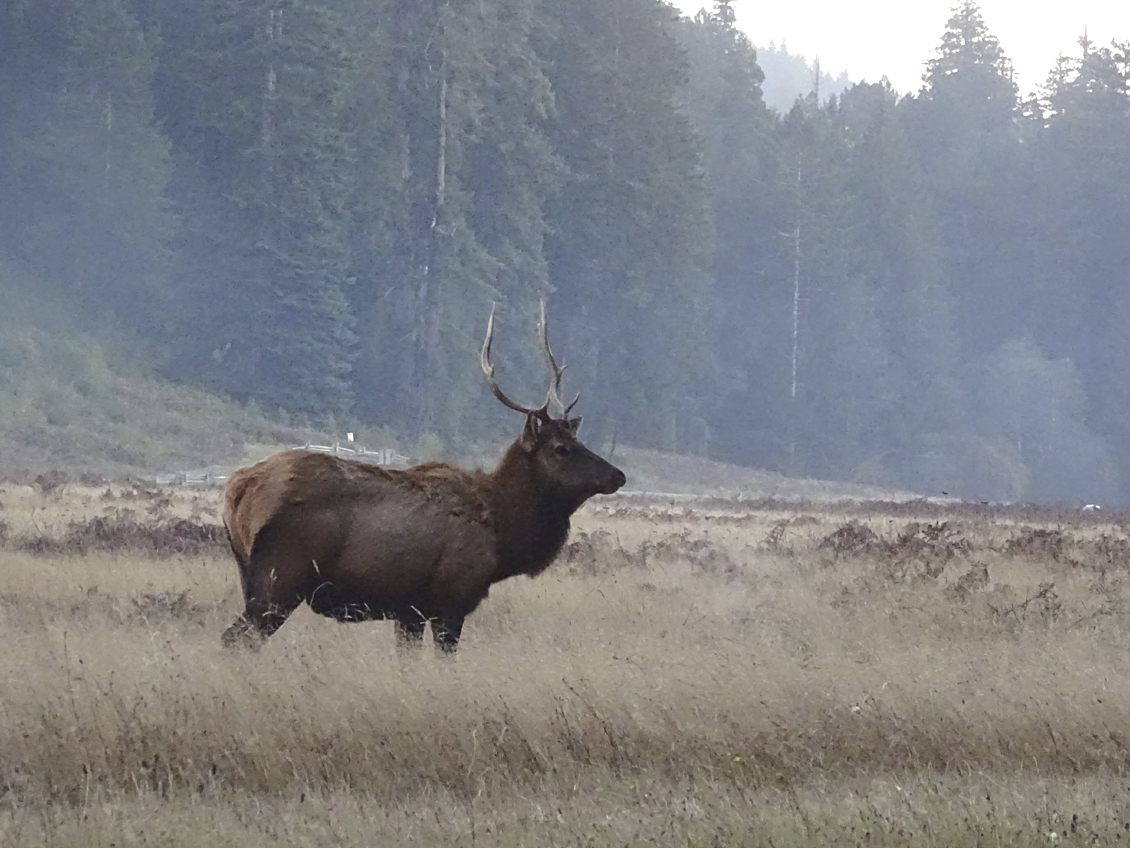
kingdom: Animalia
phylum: Chordata
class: Mammalia
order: Artiodactyla
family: Cervidae
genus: Cervus
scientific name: Cervus elaphus
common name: Red deer
